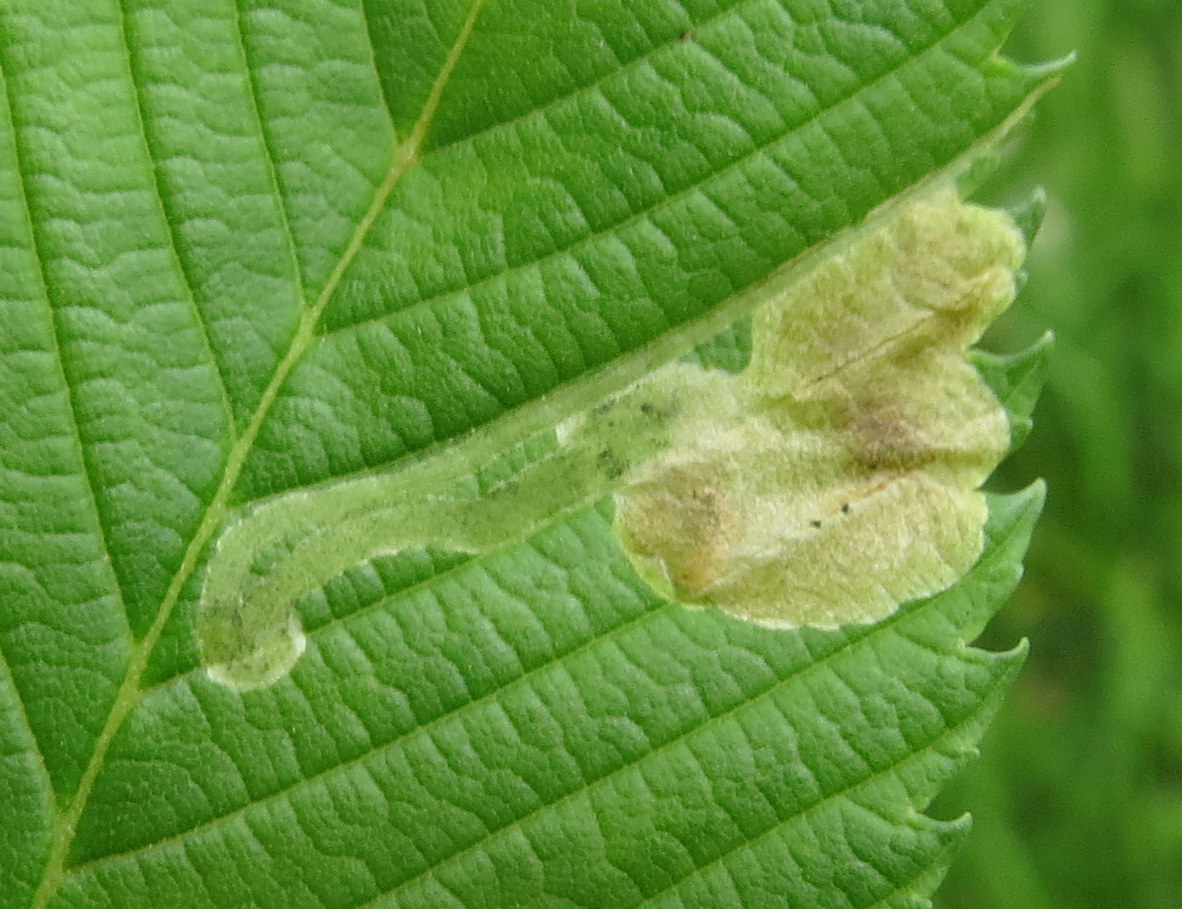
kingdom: Animalia
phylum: Arthropoda
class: Insecta
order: Diptera
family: Agromyzidae
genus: Agromyza
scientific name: Agromyza aristata
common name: Elm agromyzid leafminer
